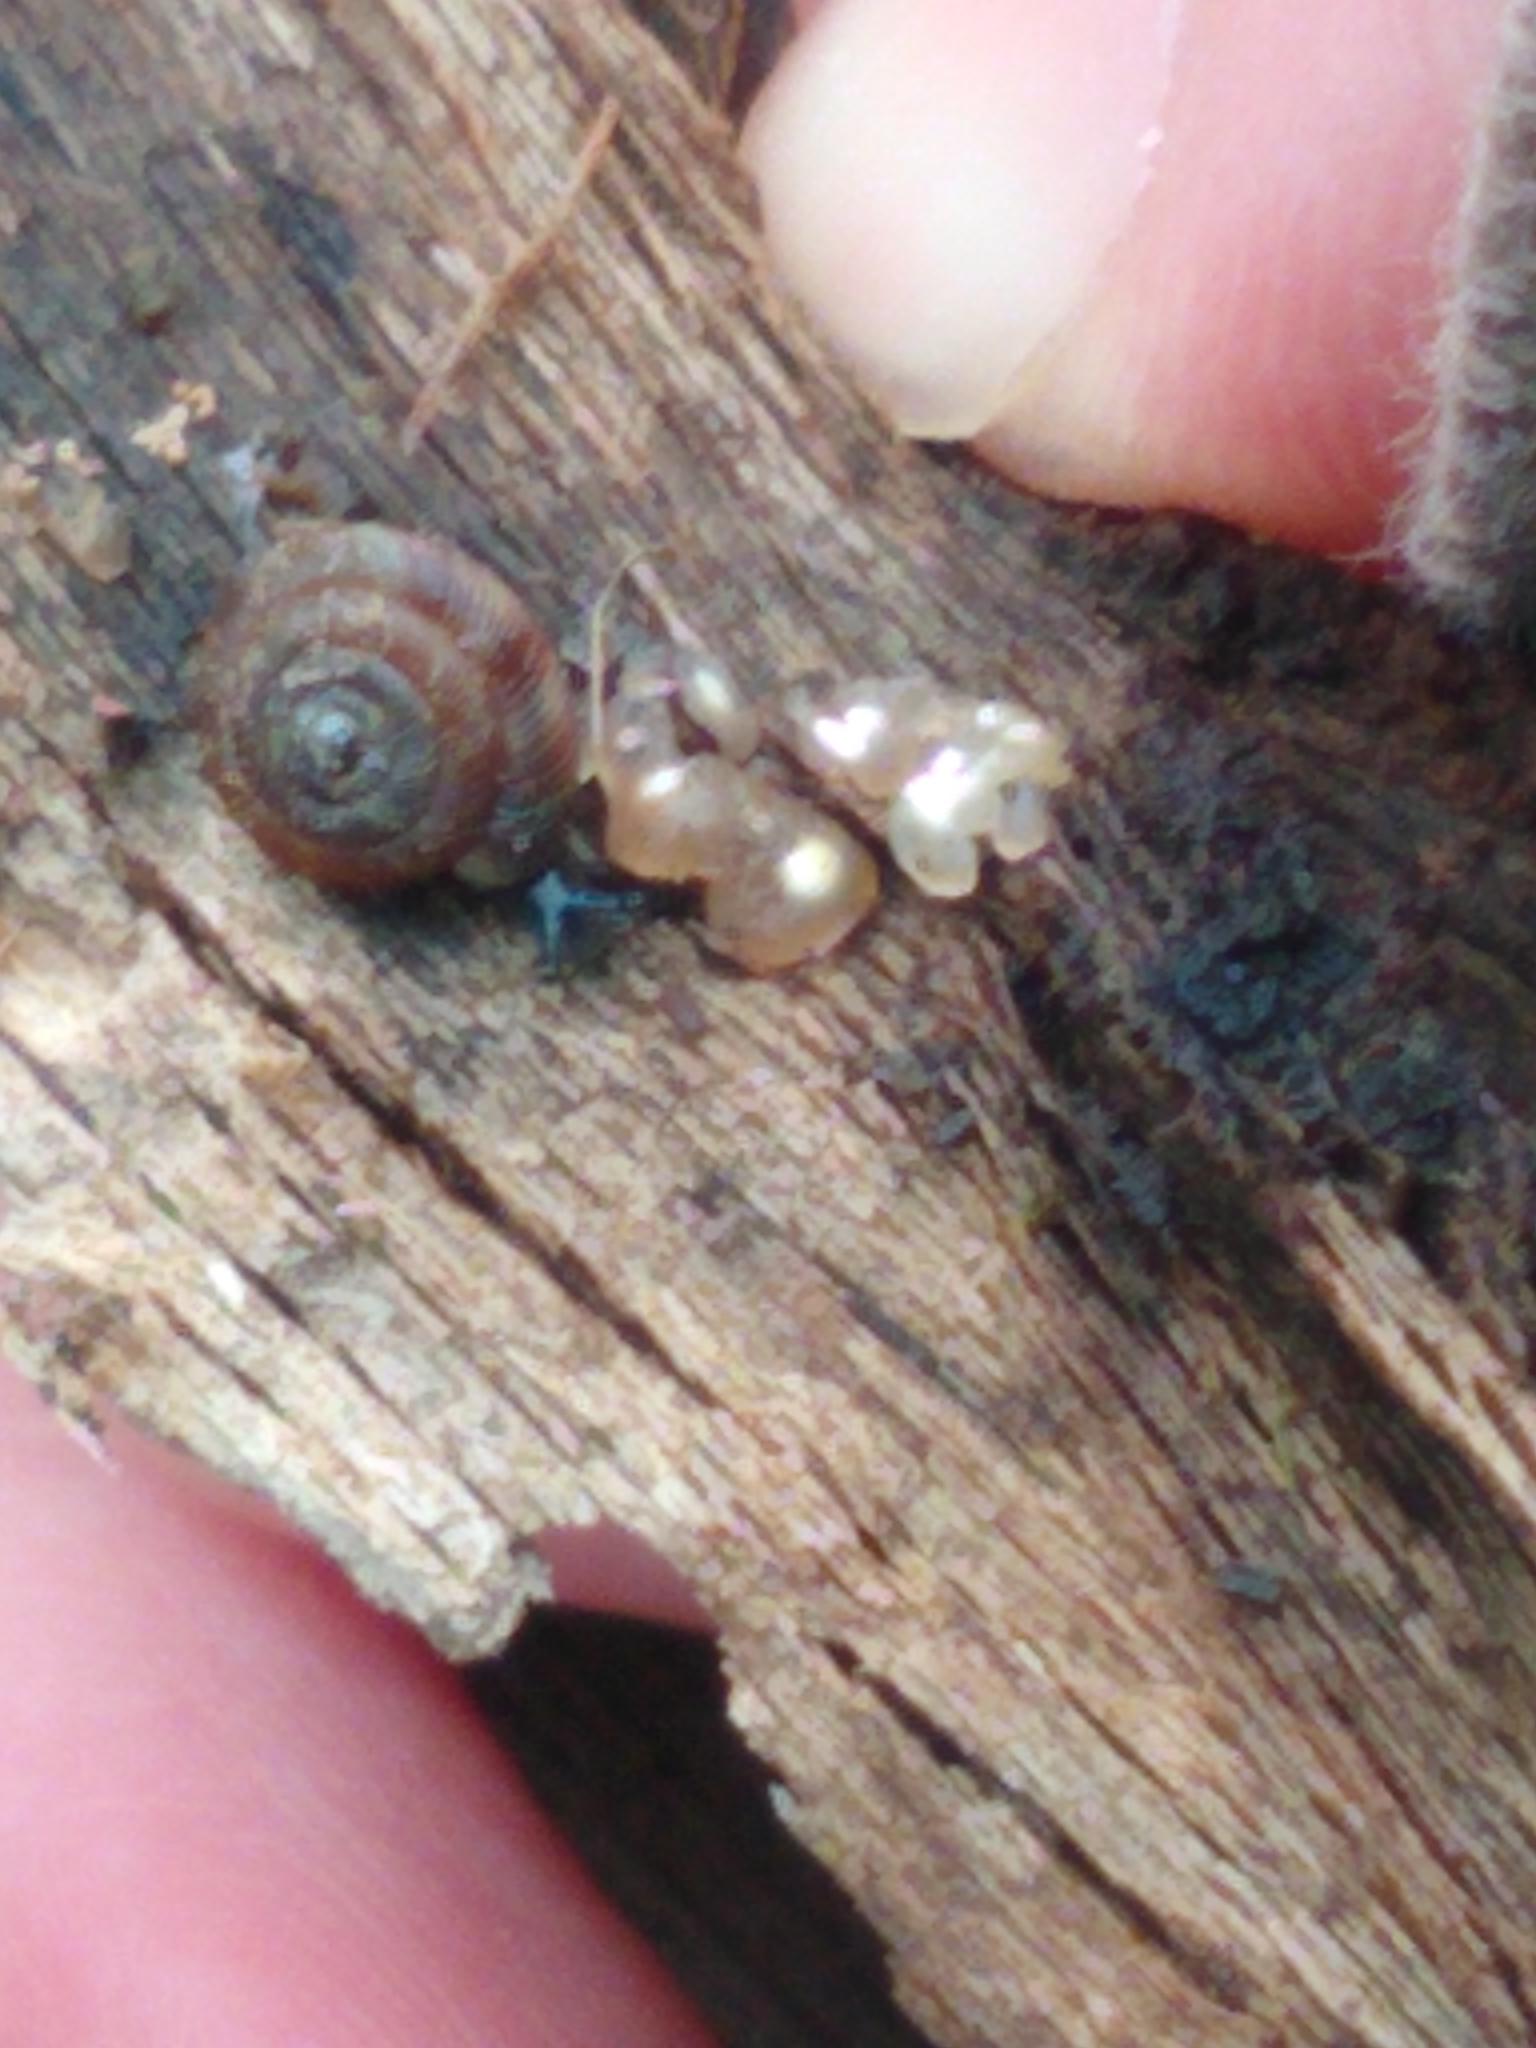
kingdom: Animalia
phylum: Mollusca
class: Gastropoda
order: Stylommatophora
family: Discidae
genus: Discus
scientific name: Discus rotundatus
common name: Rounded snail
